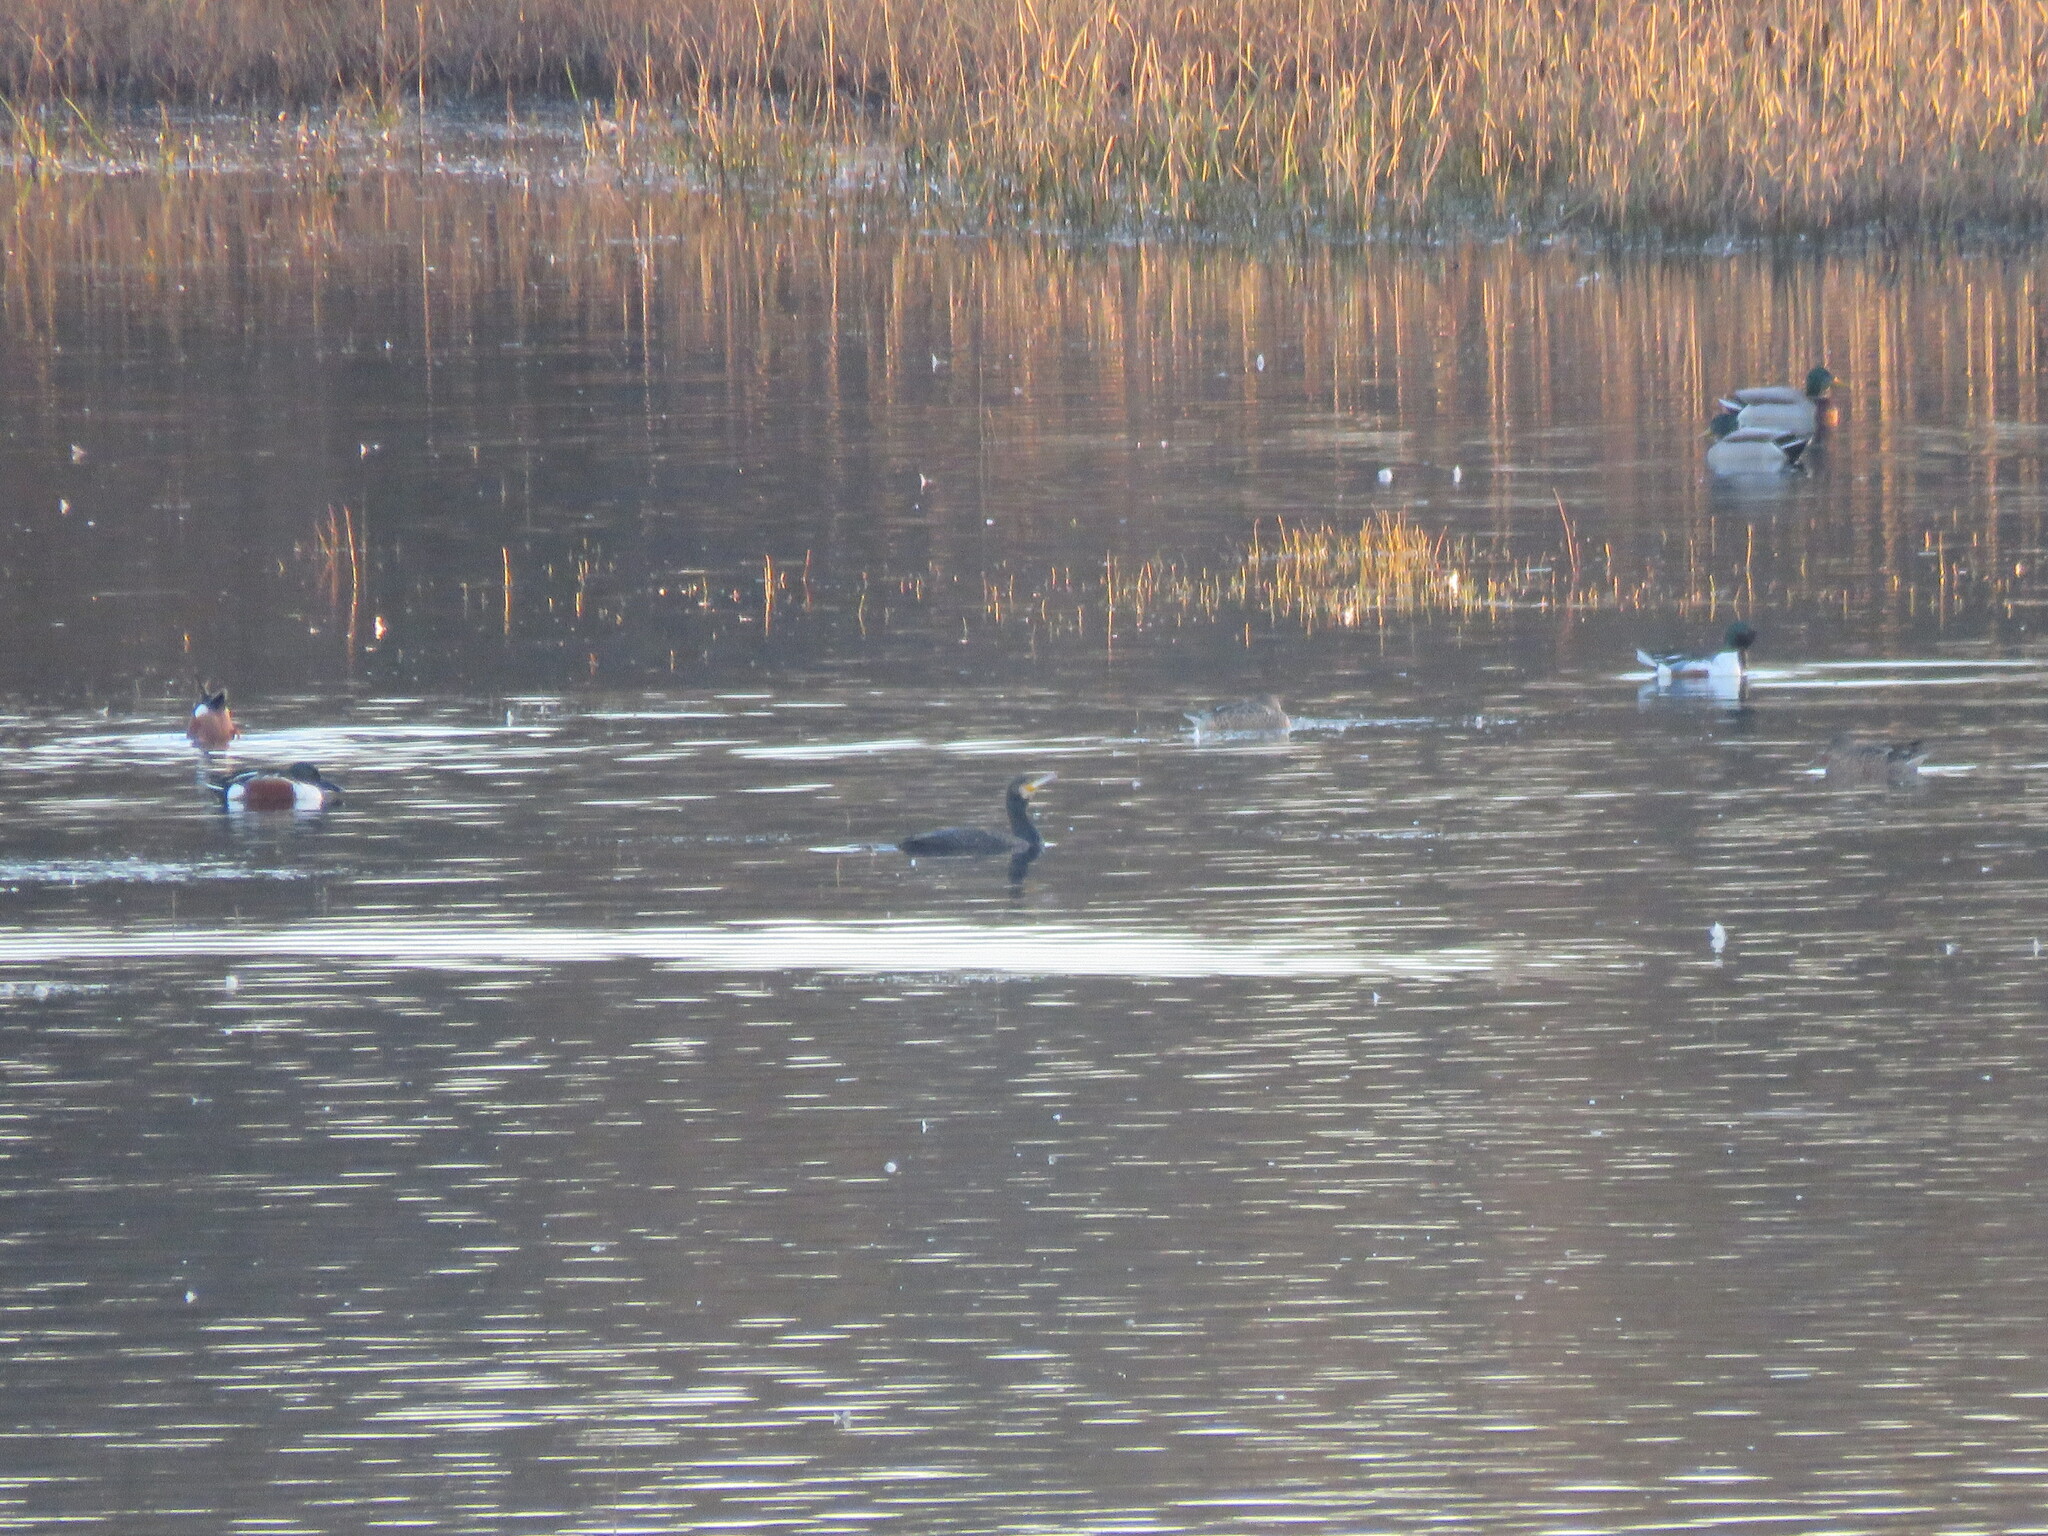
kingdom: Animalia
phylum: Chordata
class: Aves
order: Suliformes
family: Phalacrocoracidae
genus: Phalacrocorax
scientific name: Phalacrocorax carbo
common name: Great cormorant
